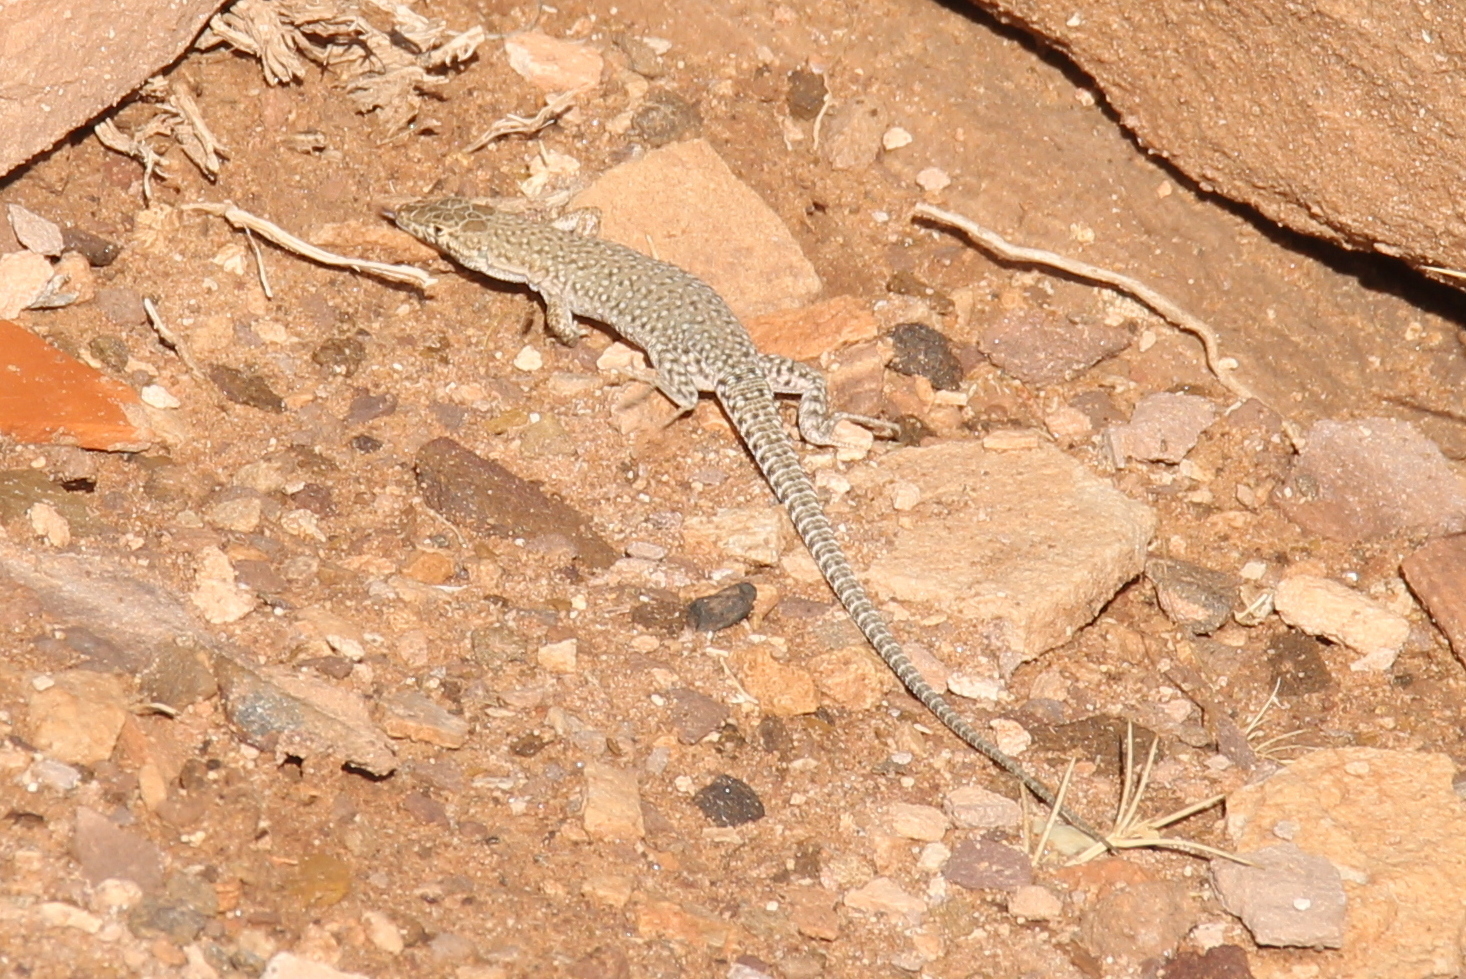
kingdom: Animalia
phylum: Chordata
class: Squamata
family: Lacertidae
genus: Mesalina
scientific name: Mesalina bahaeldini
